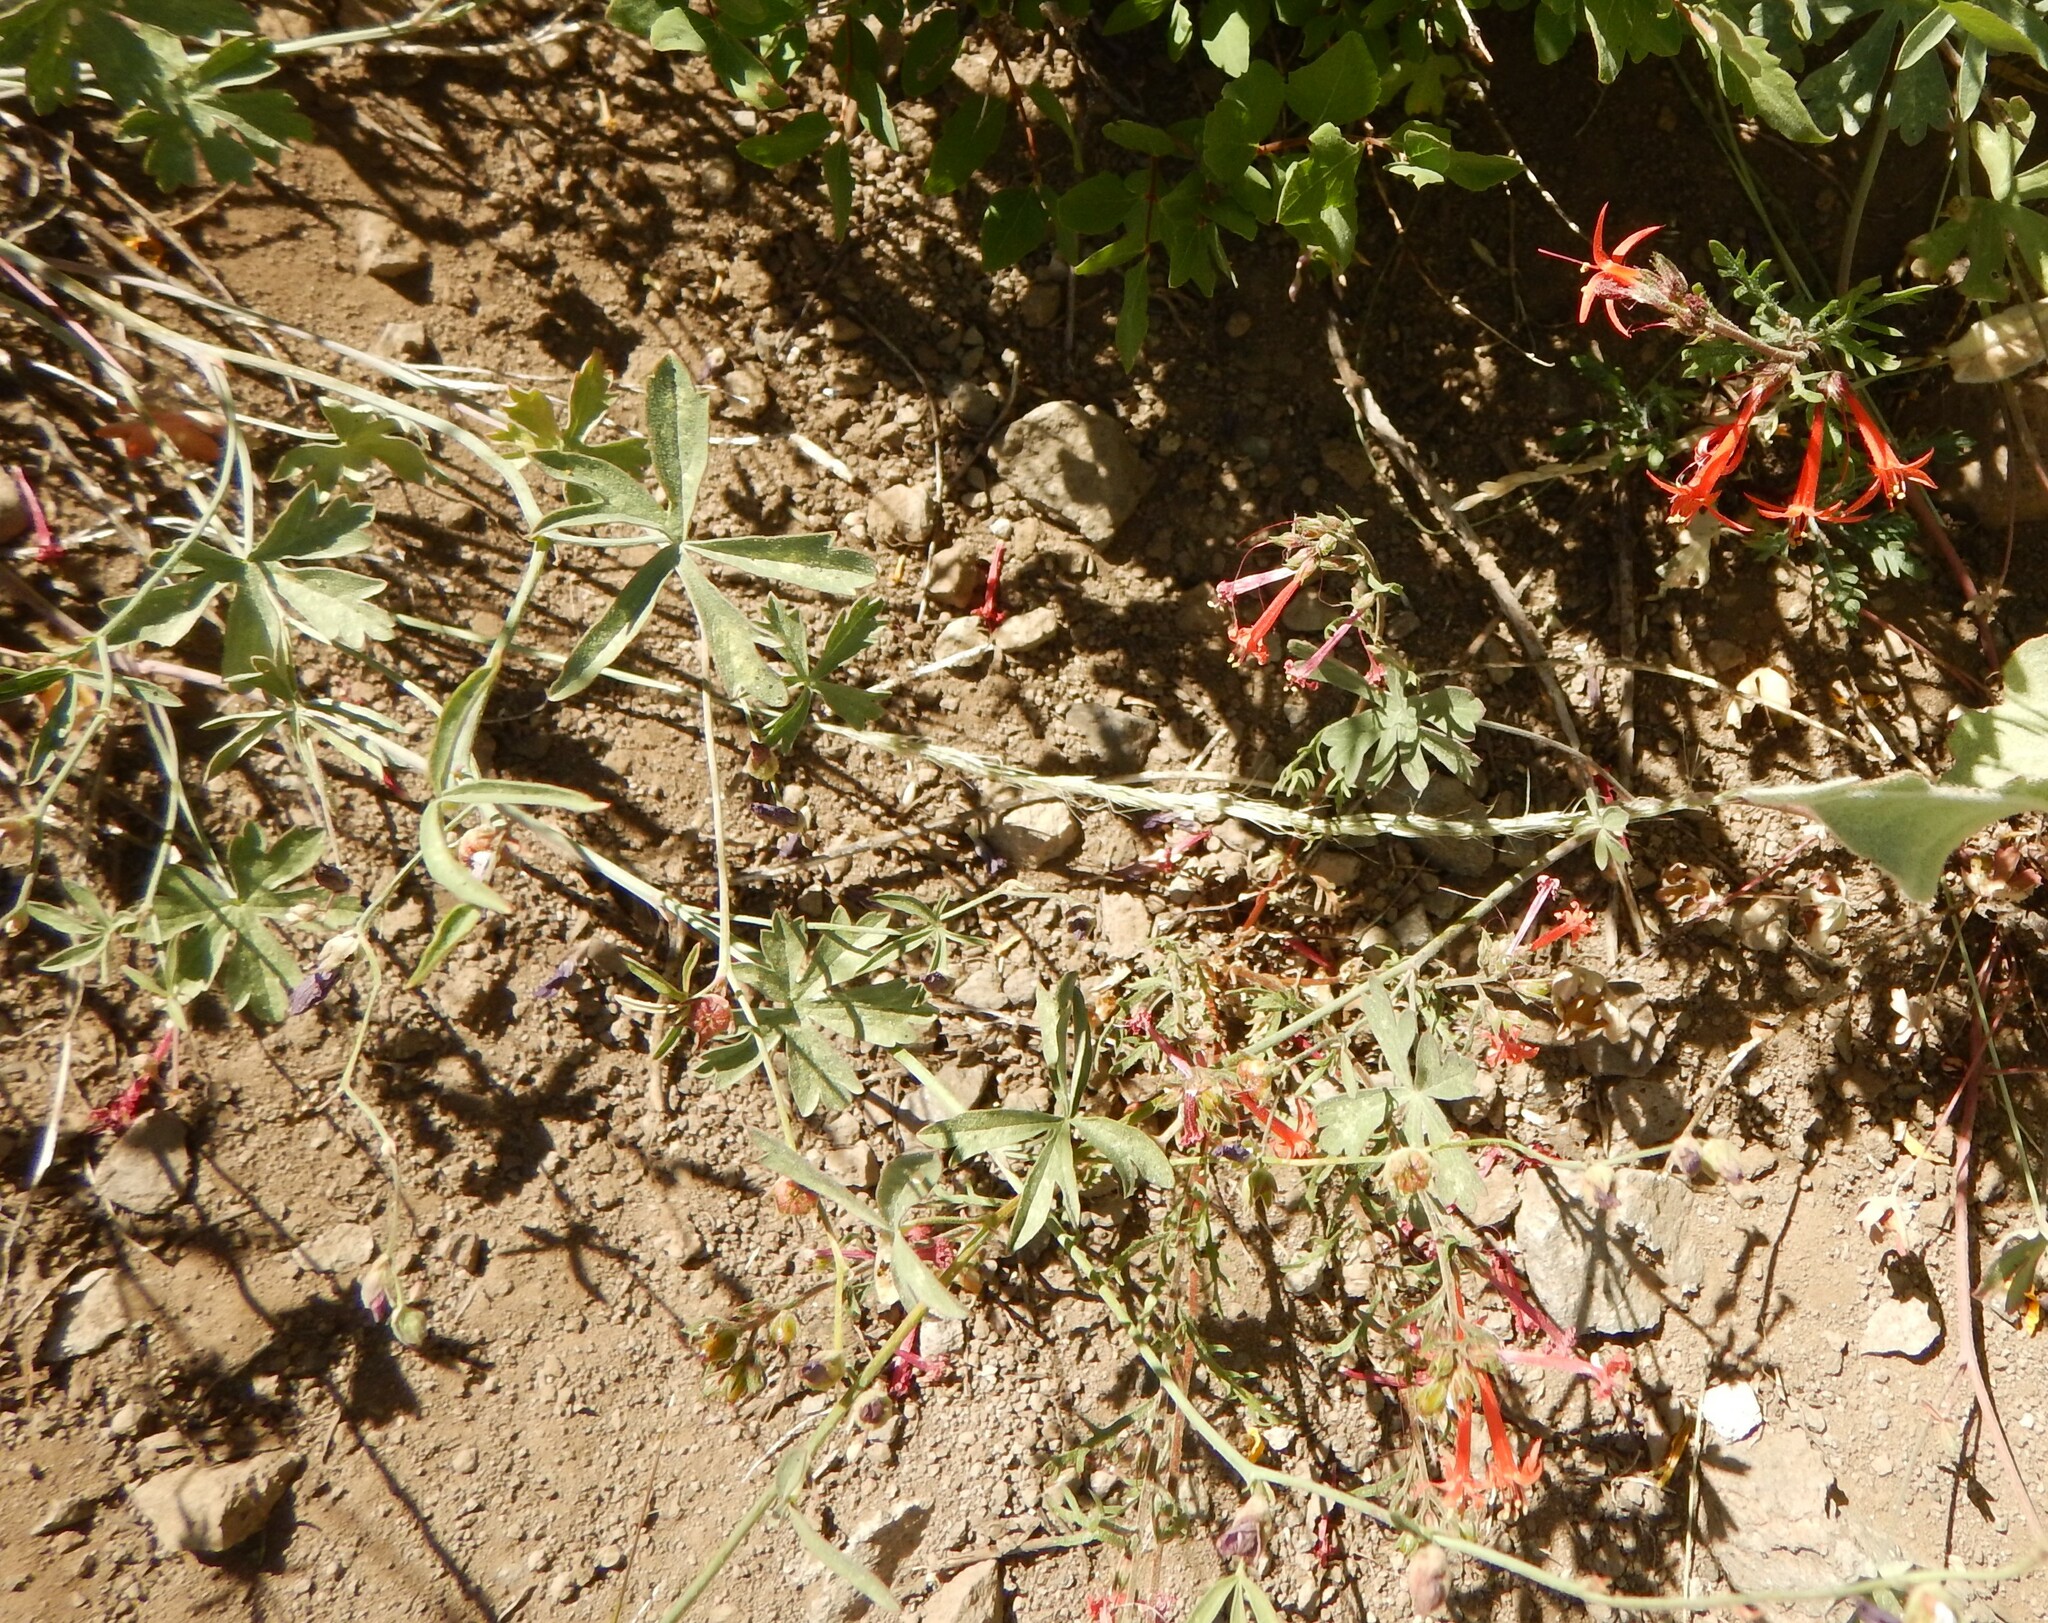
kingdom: Plantae
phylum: Tracheophyta
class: Magnoliopsida
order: Ericales
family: Polemoniaceae
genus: Ipomopsis
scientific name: Ipomopsis aggregata
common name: Scarlet gilia
